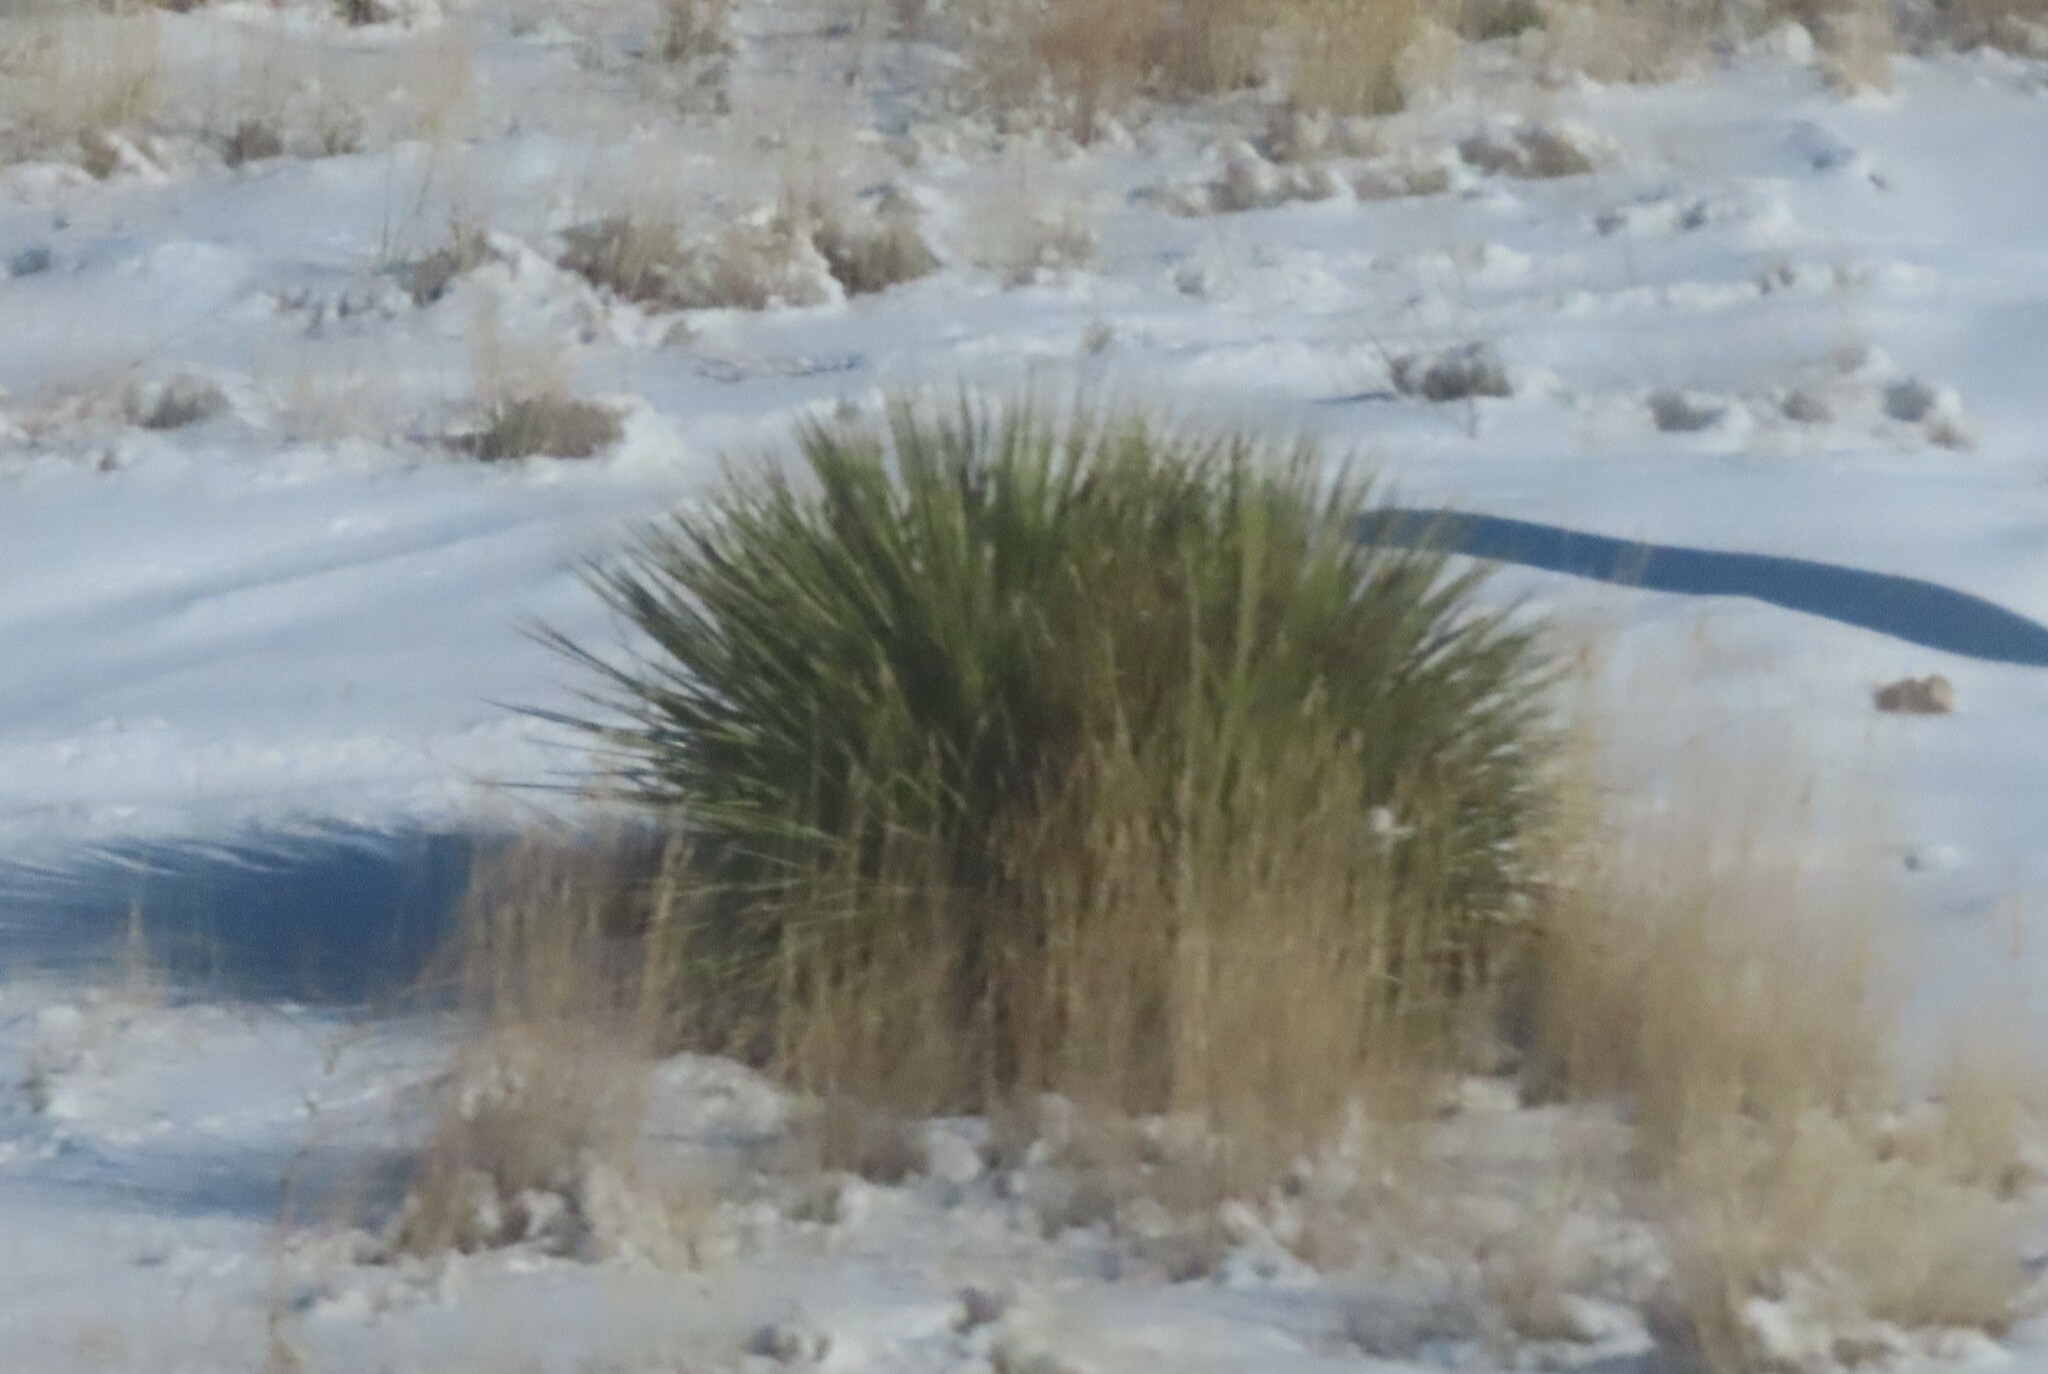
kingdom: Plantae
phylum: Tracheophyta
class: Liliopsida
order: Asparagales
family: Asparagaceae
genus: Yucca
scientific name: Yucca glauca
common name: Great plains yucca
